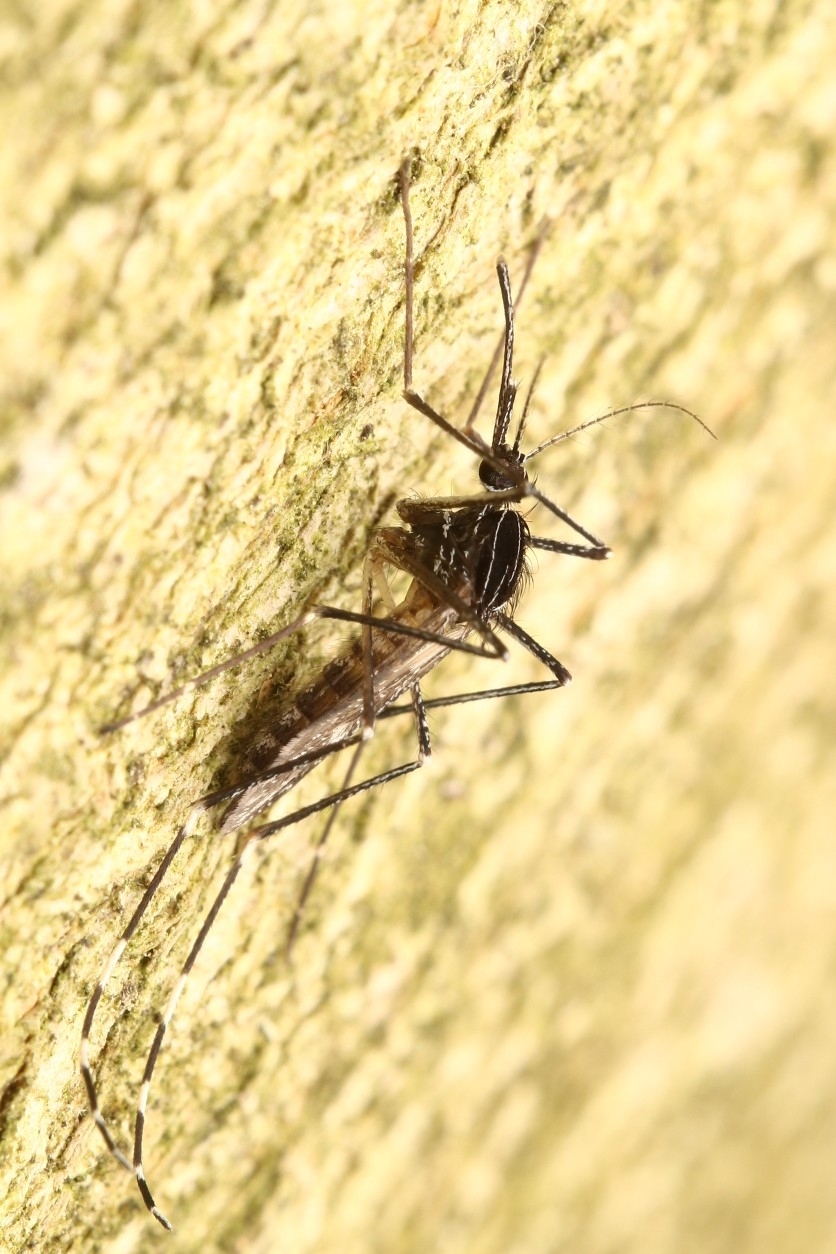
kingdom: Animalia
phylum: Arthropoda
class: Insecta
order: Diptera
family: Culicidae
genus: Orthopodomyia
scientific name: Orthopodomyia signifera
